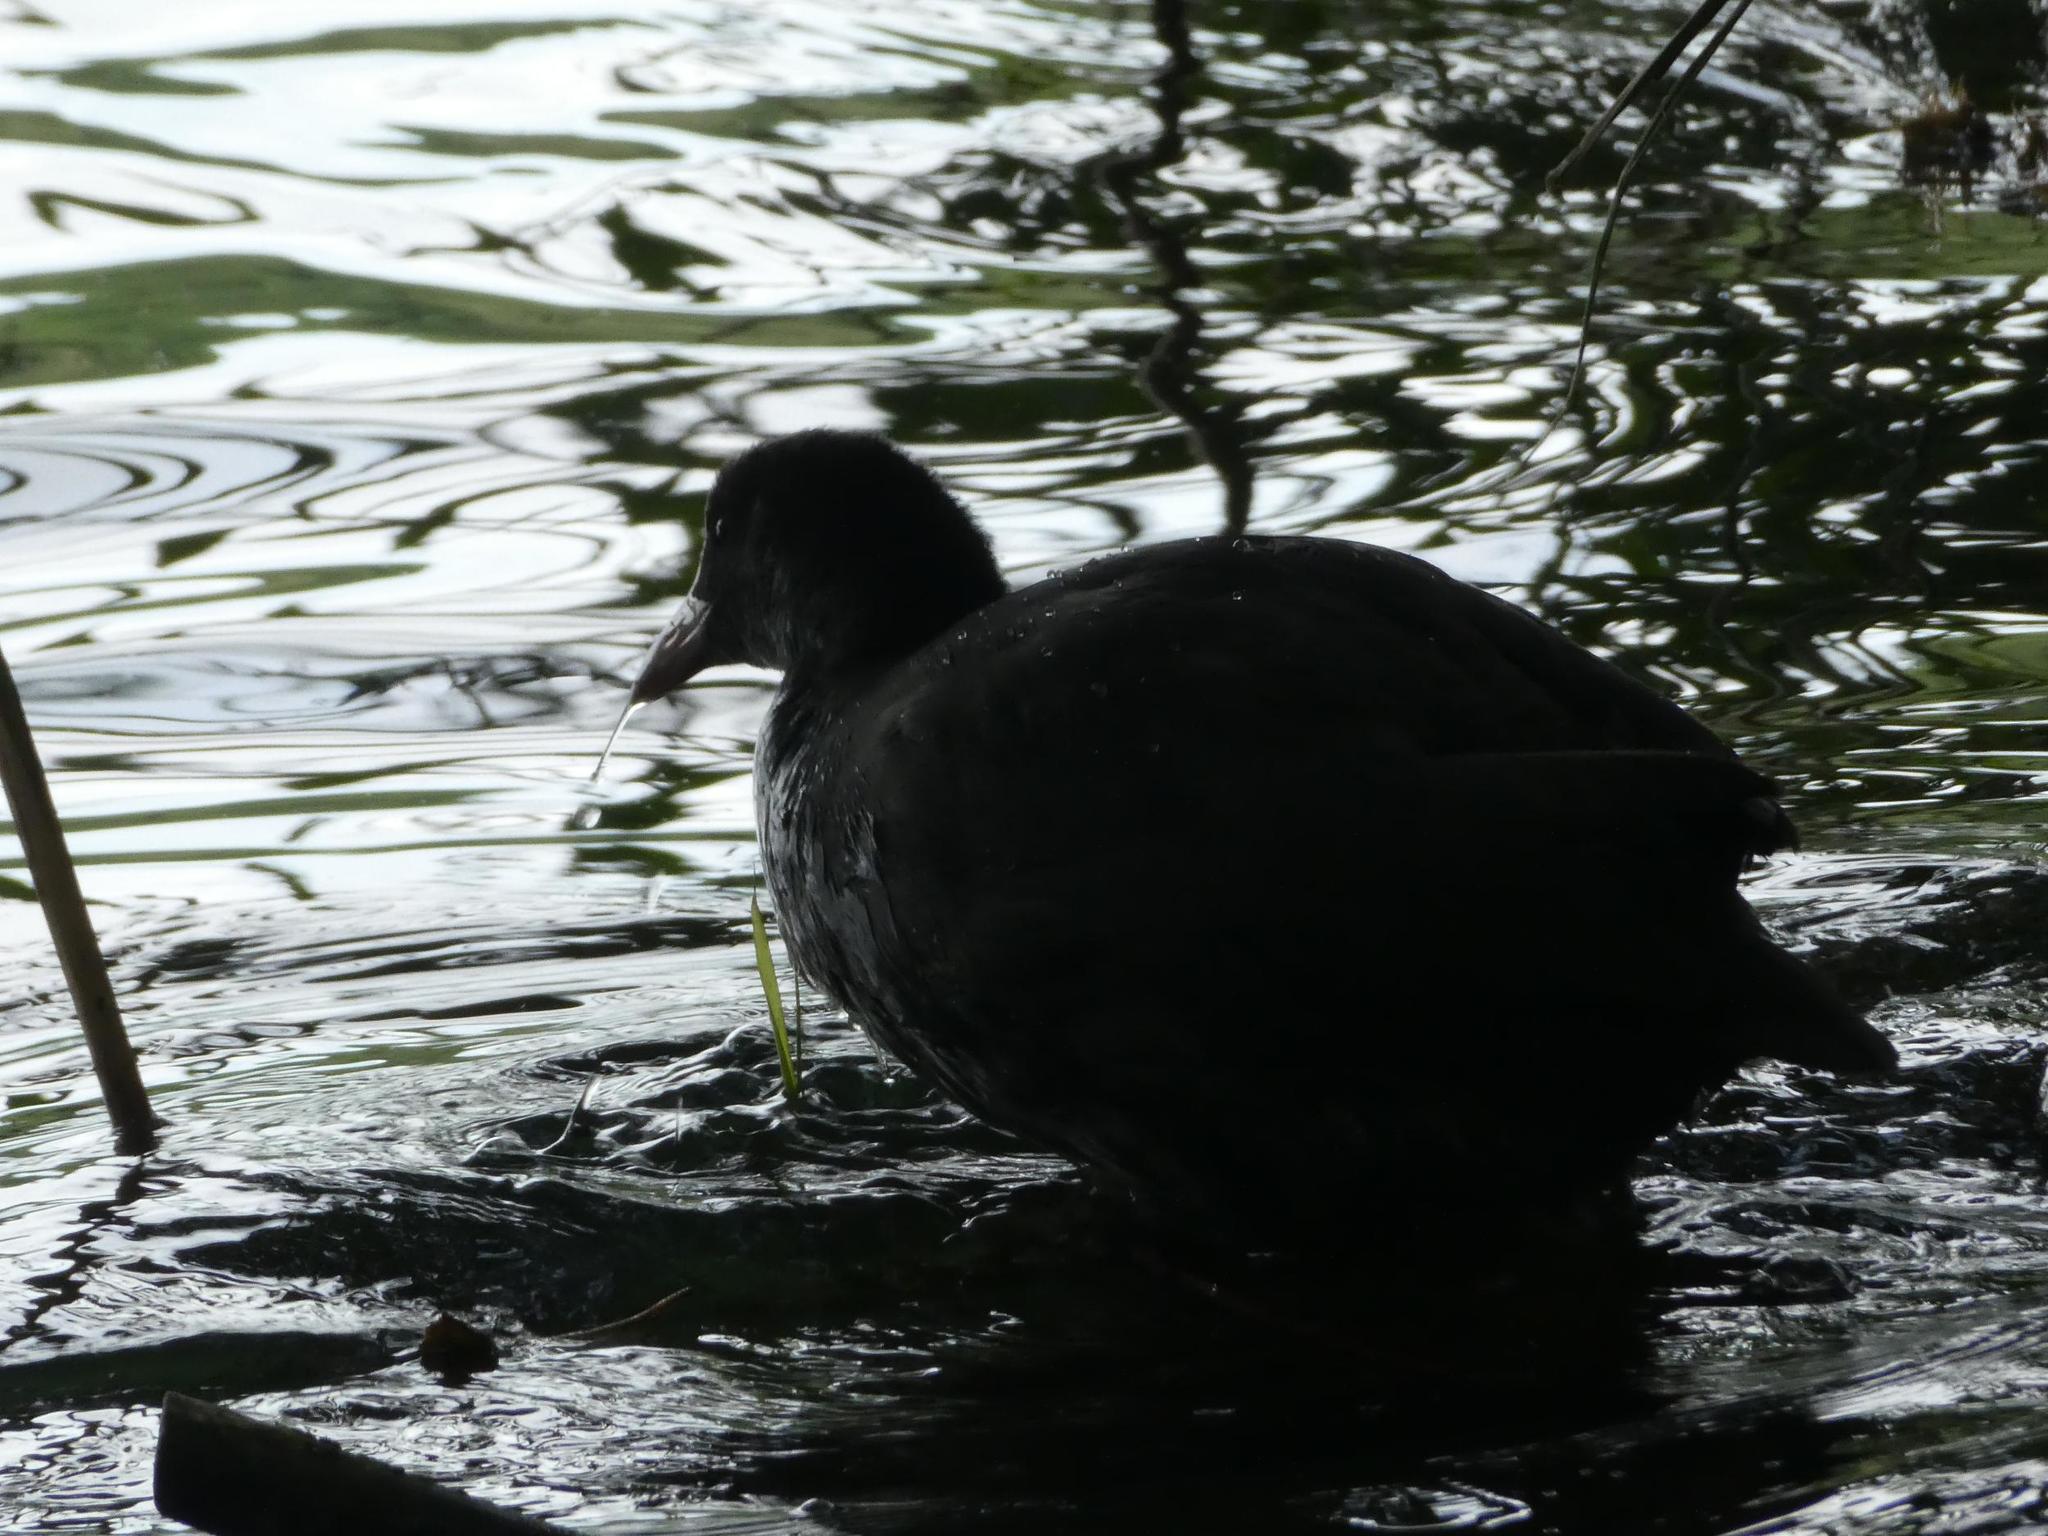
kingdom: Animalia
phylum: Chordata
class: Aves
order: Gruiformes
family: Rallidae
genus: Fulica
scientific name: Fulica atra
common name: Eurasian coot
